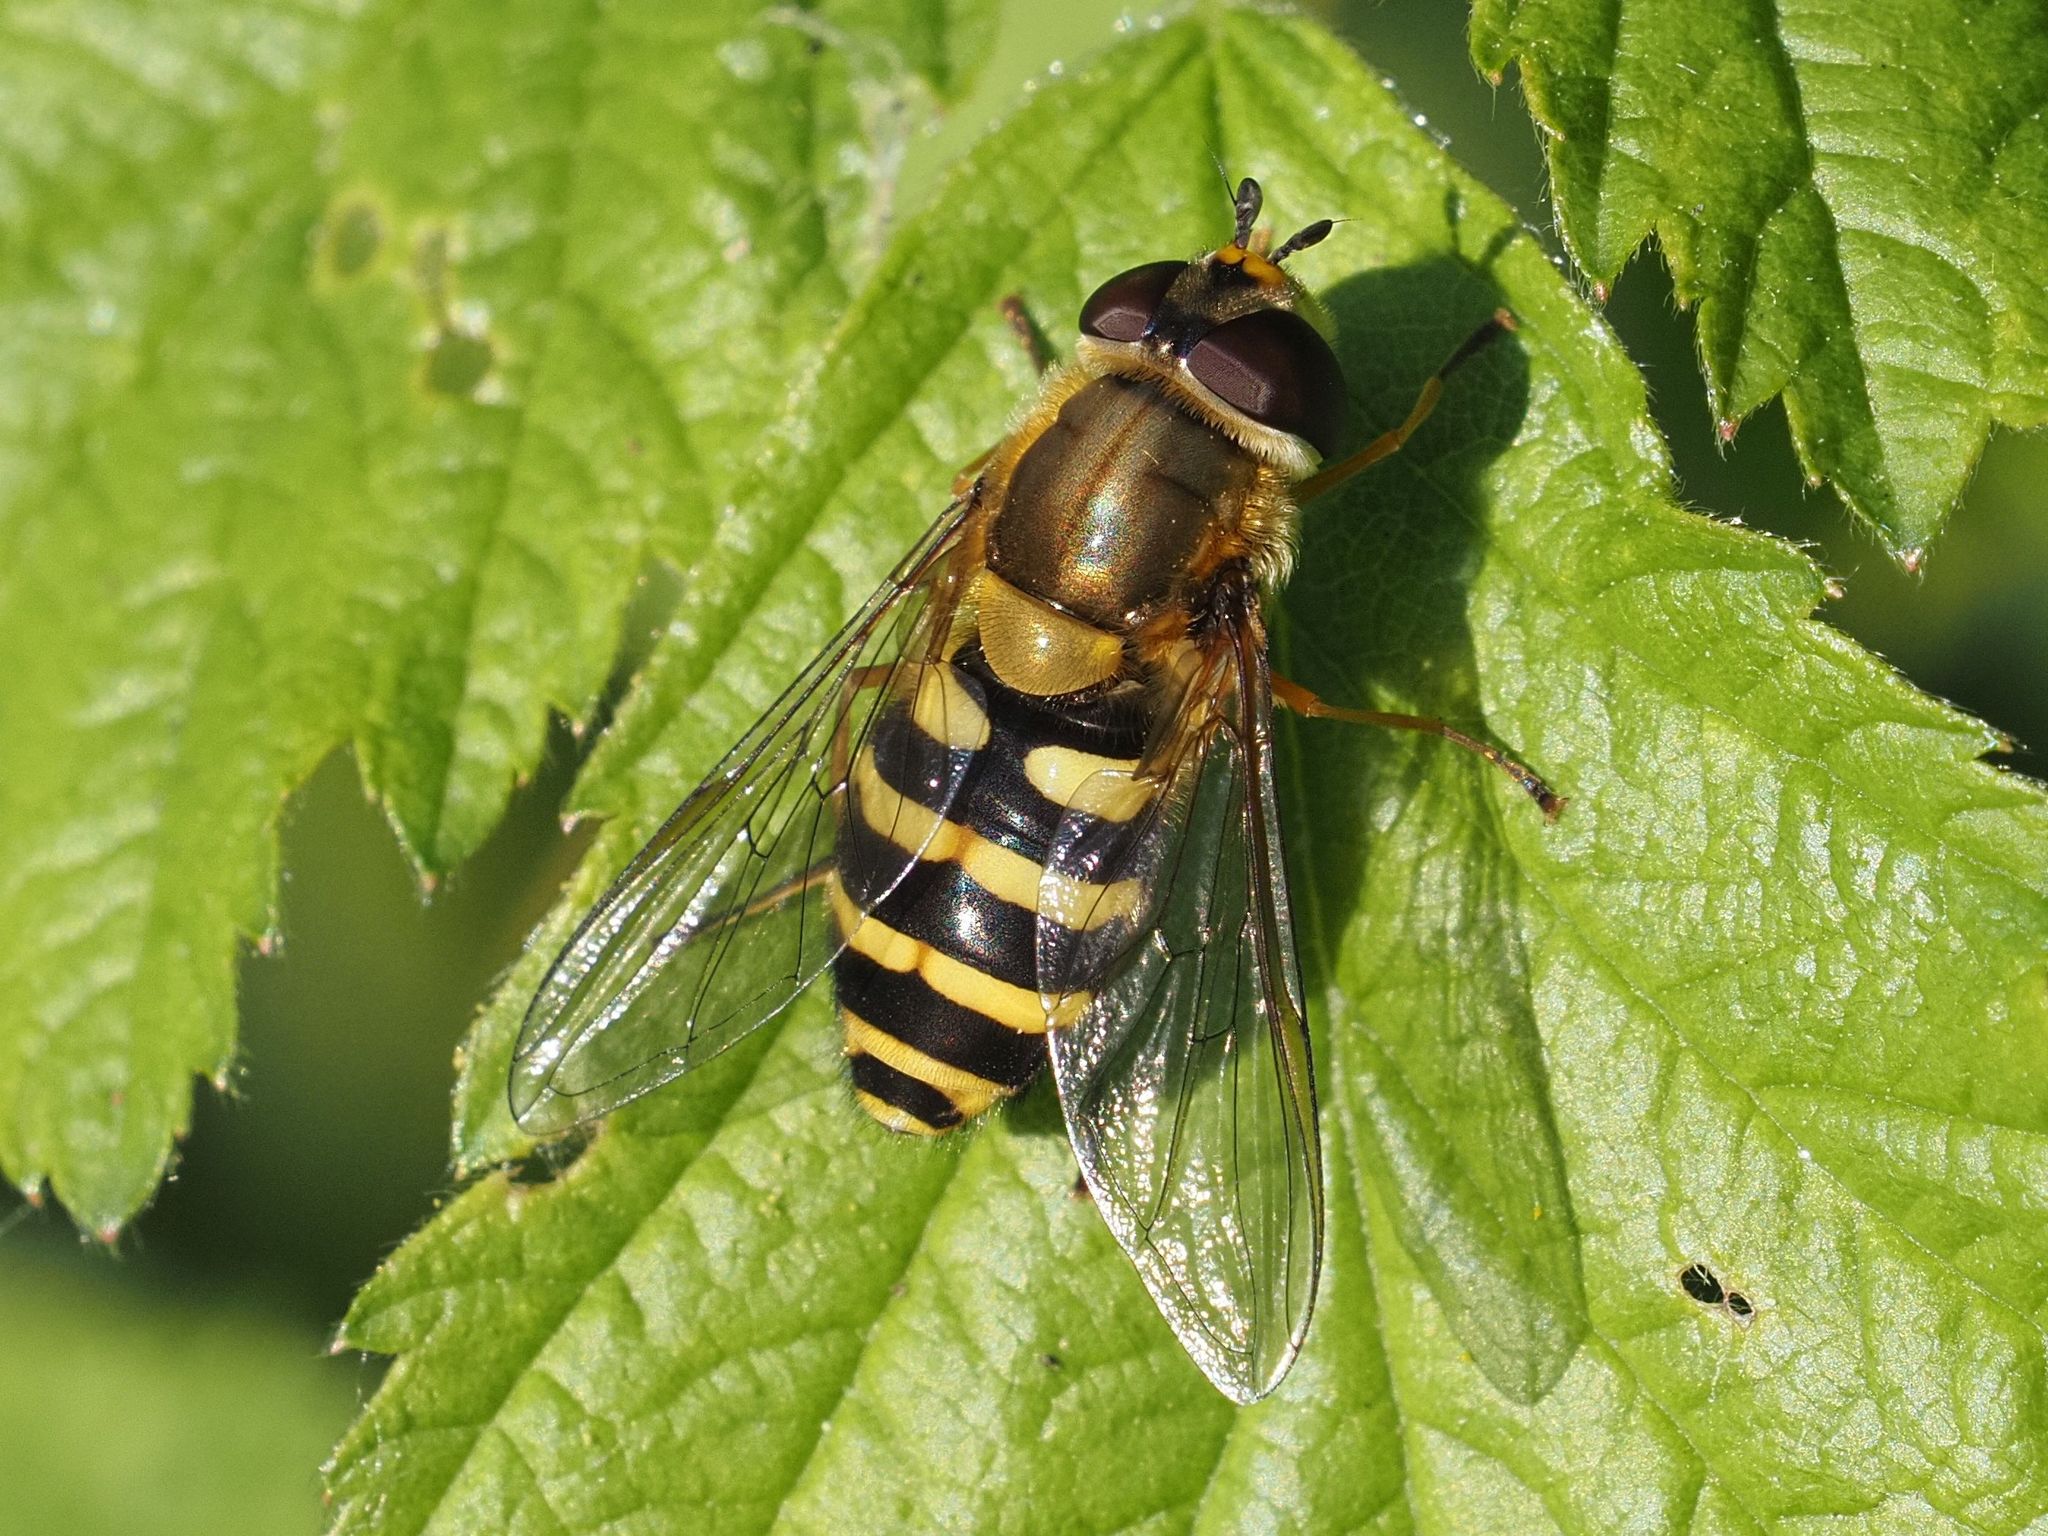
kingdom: Animalia
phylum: Arthropoda
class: Insecta
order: Diptera
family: Syrphidae
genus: Syrphus
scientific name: Syrphus
